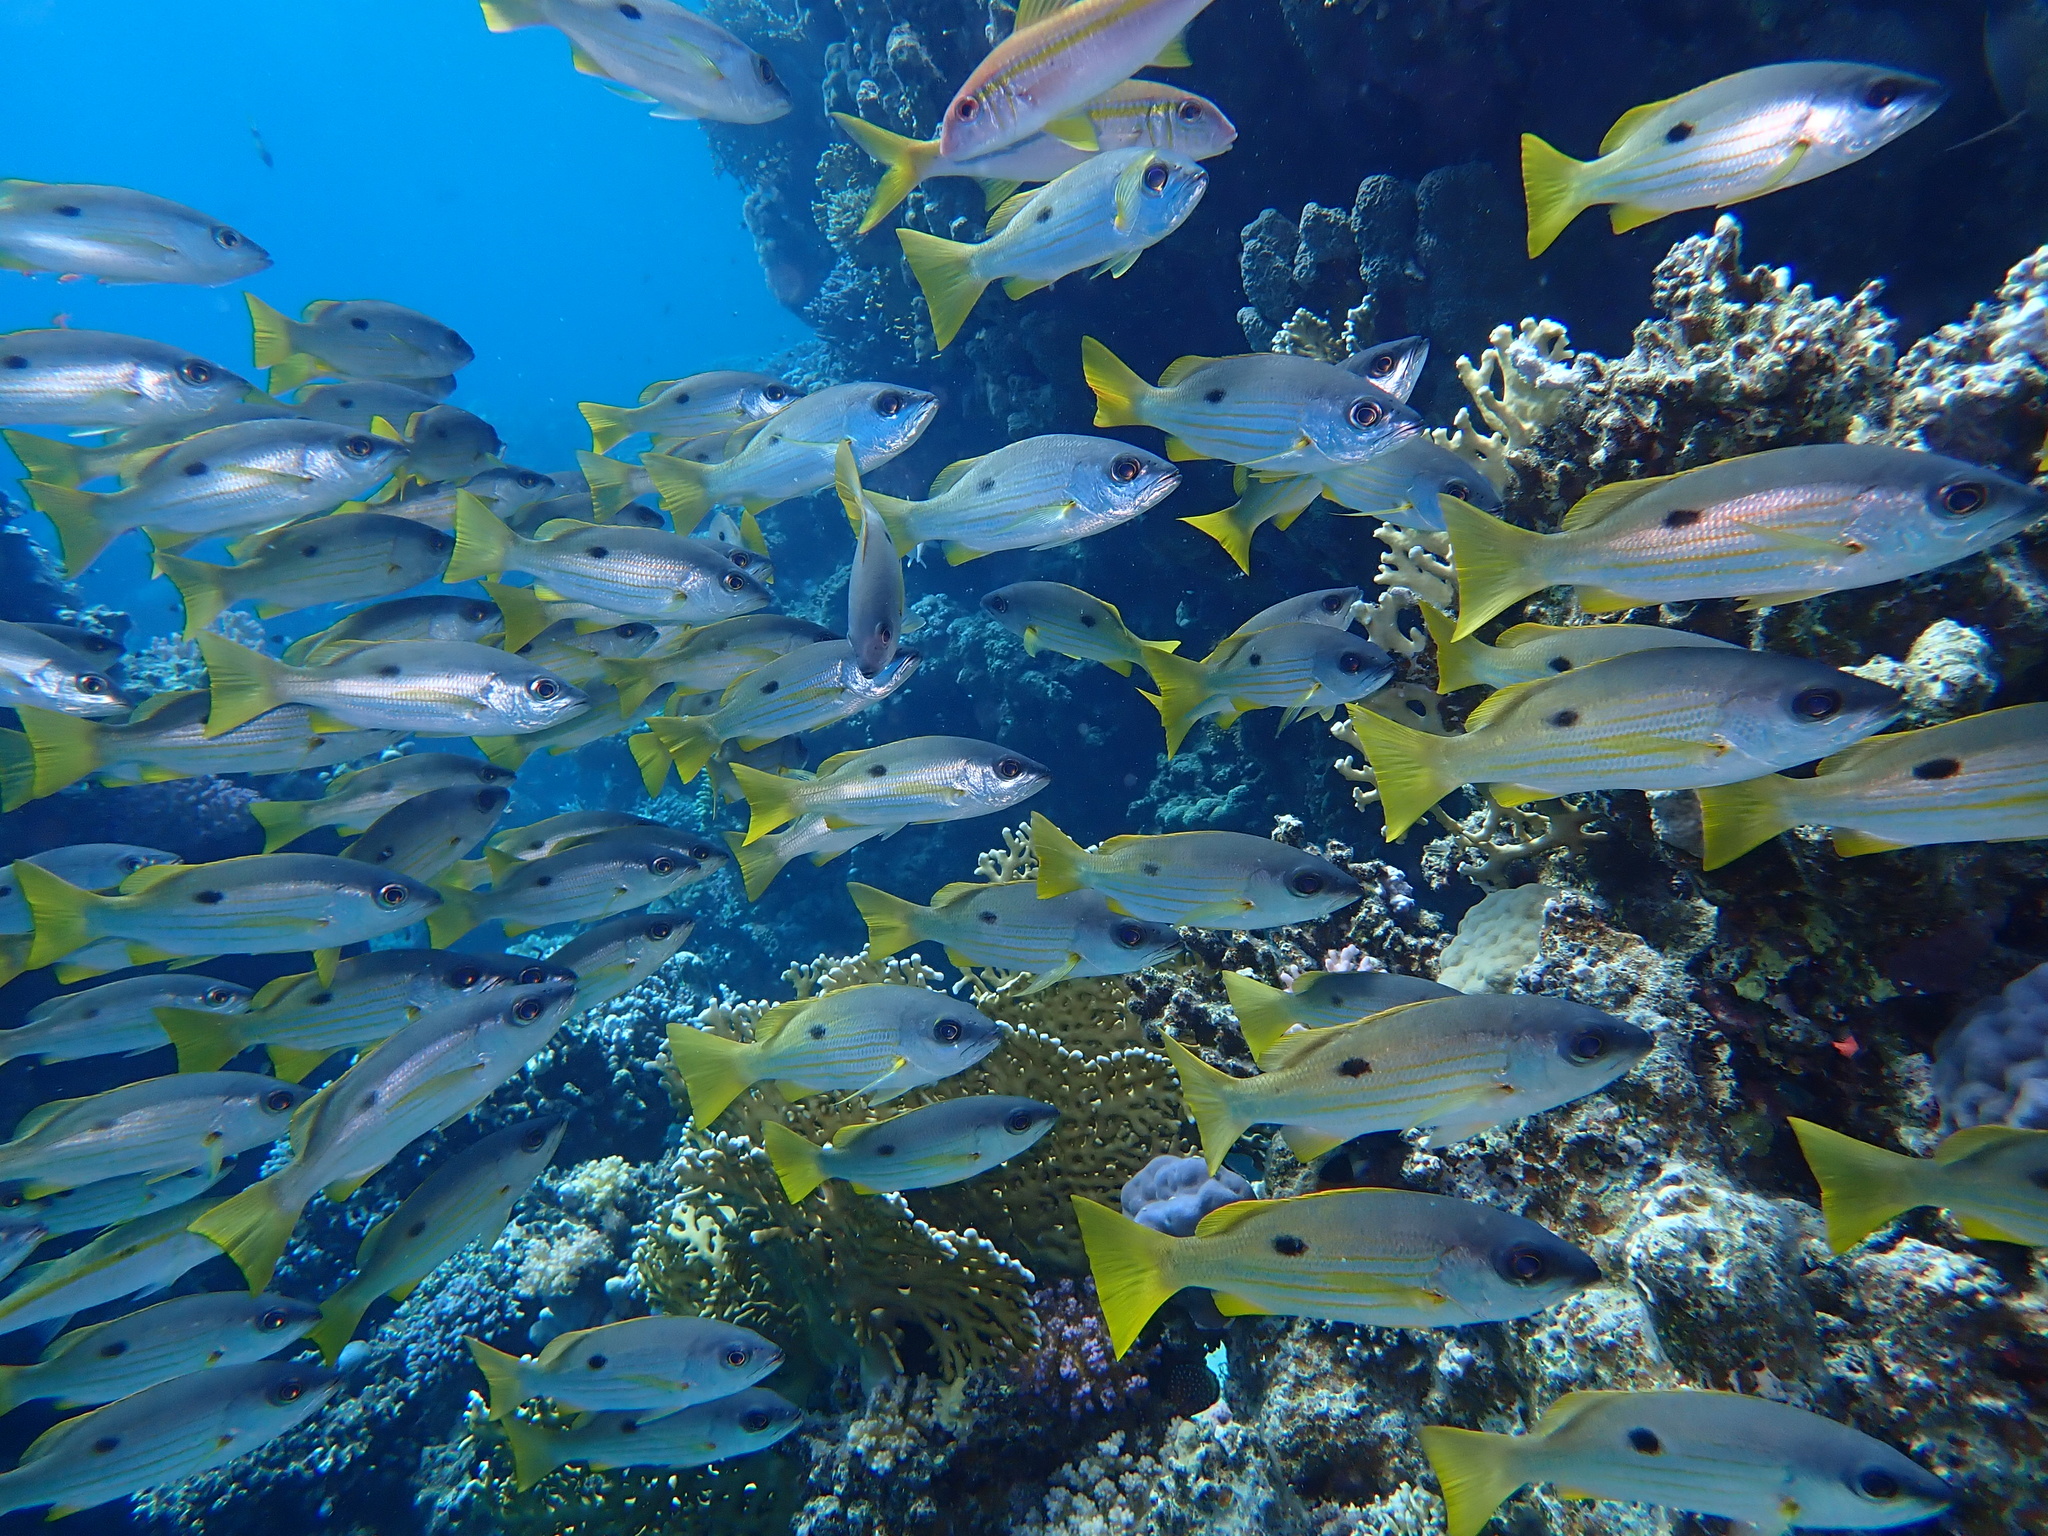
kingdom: Animalia
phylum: Chordata
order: Perciformes
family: Lutjanidae
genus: Lutjanus
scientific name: Lutjanus ehrenbergii
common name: Blackspot snapper
